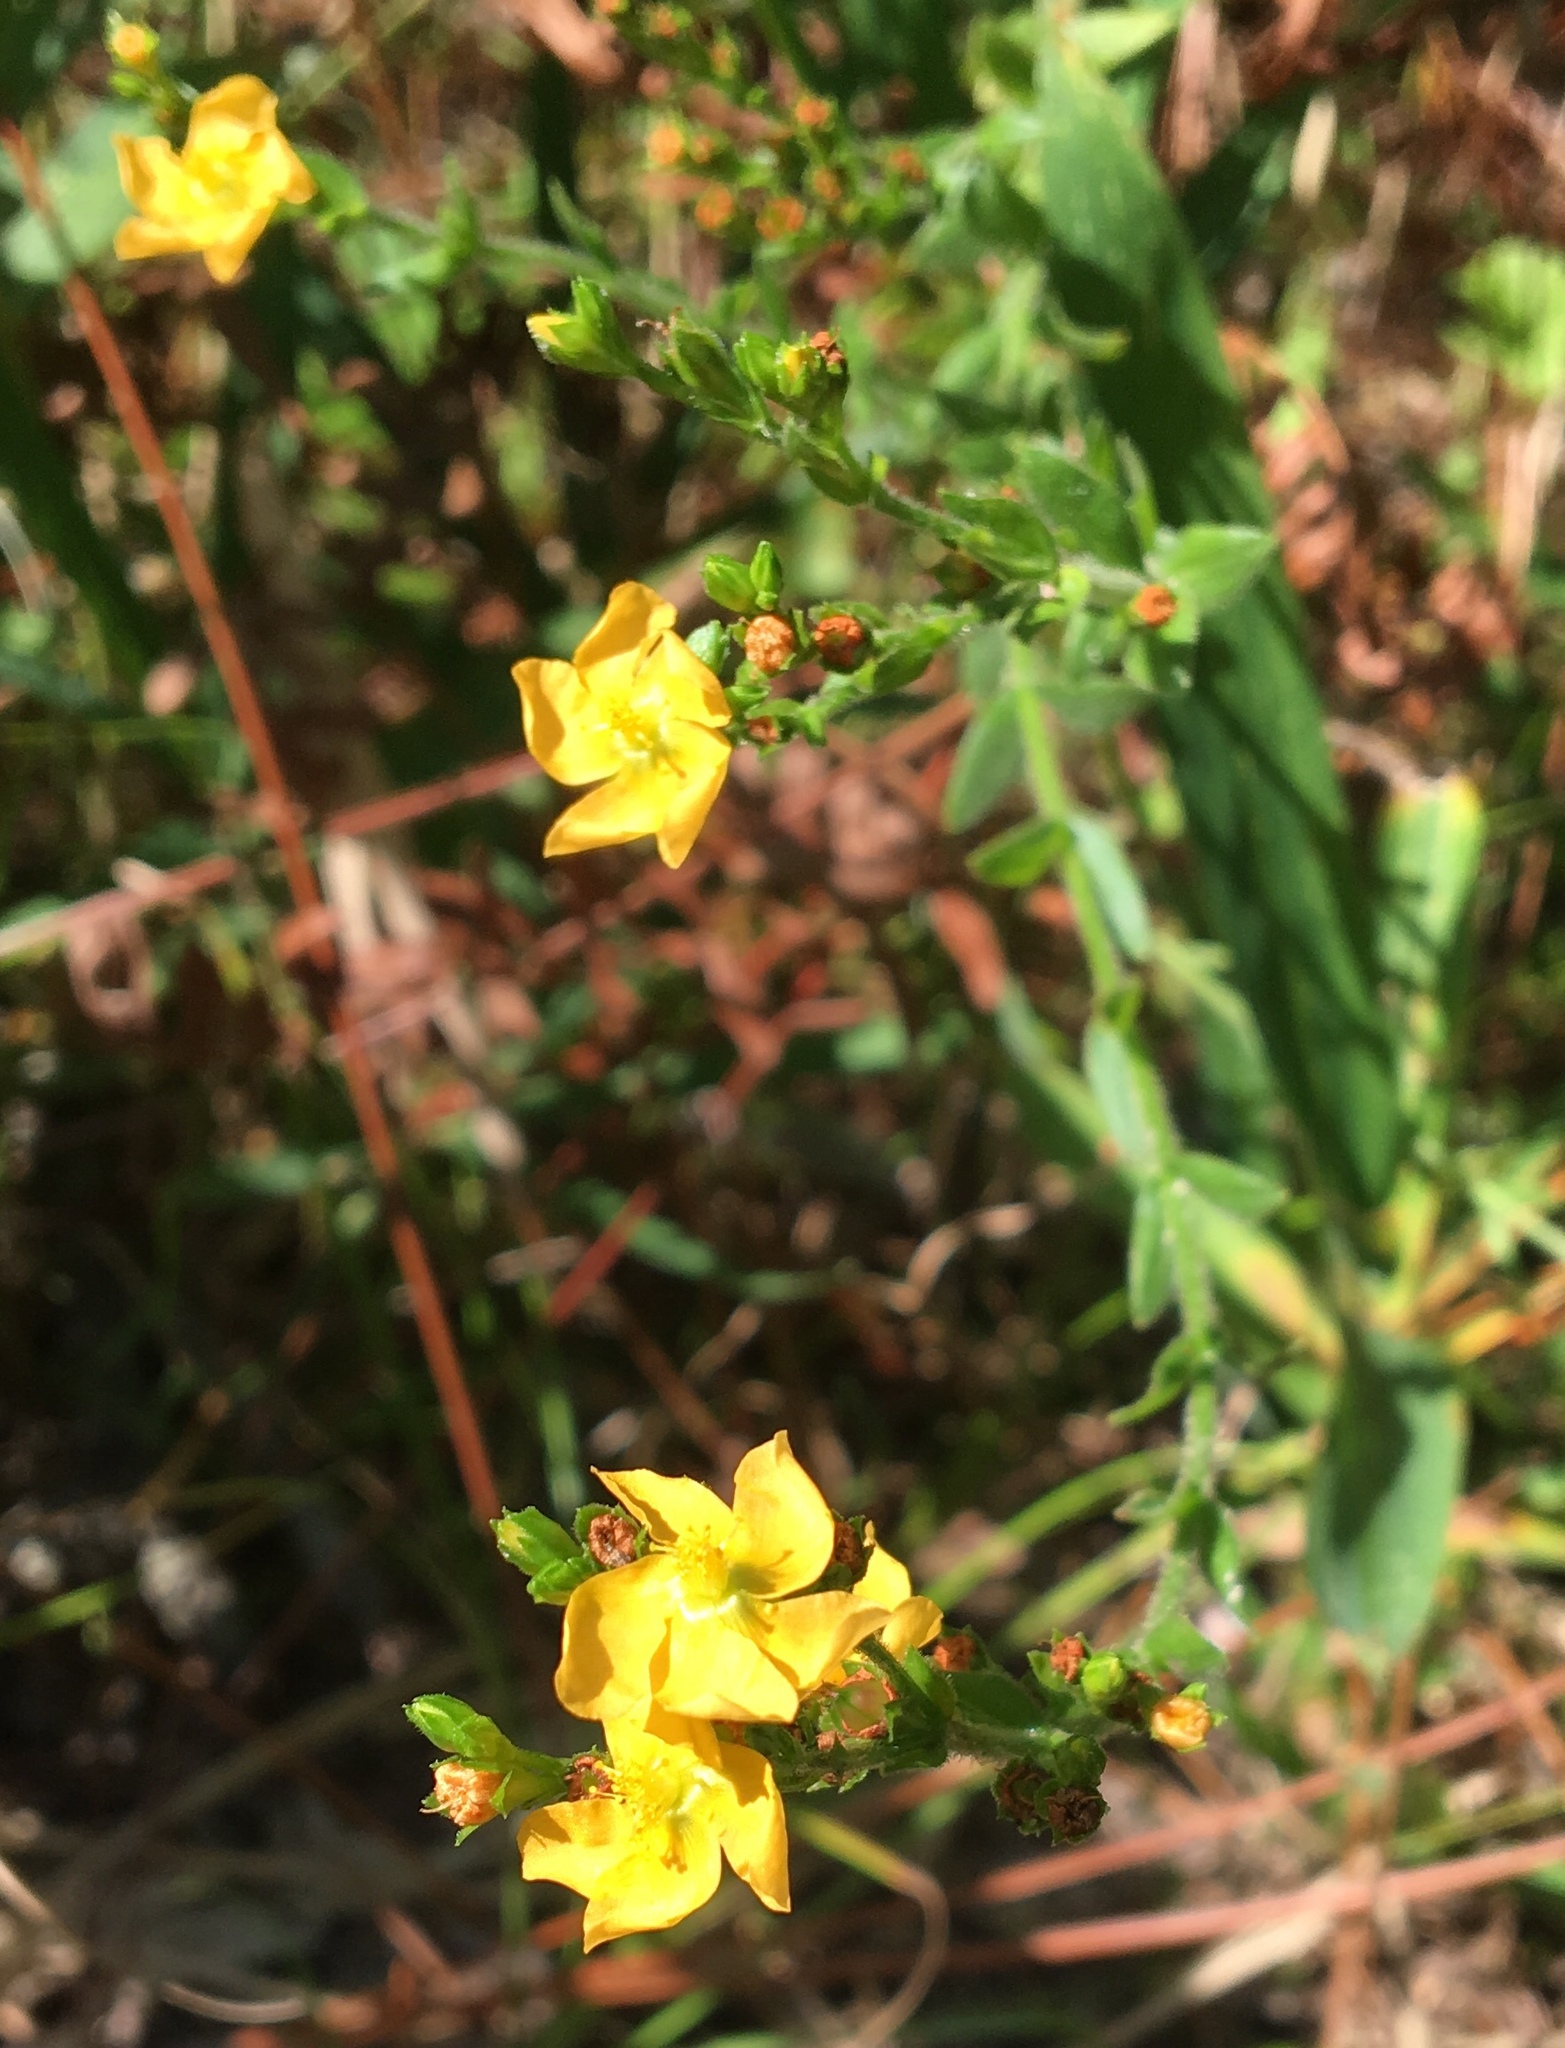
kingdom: Plantae
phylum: Tracheophyta
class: Magnoliopsida
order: Malpighiales
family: Hypericaceae
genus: Hypericum
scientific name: Hypericum setosum
